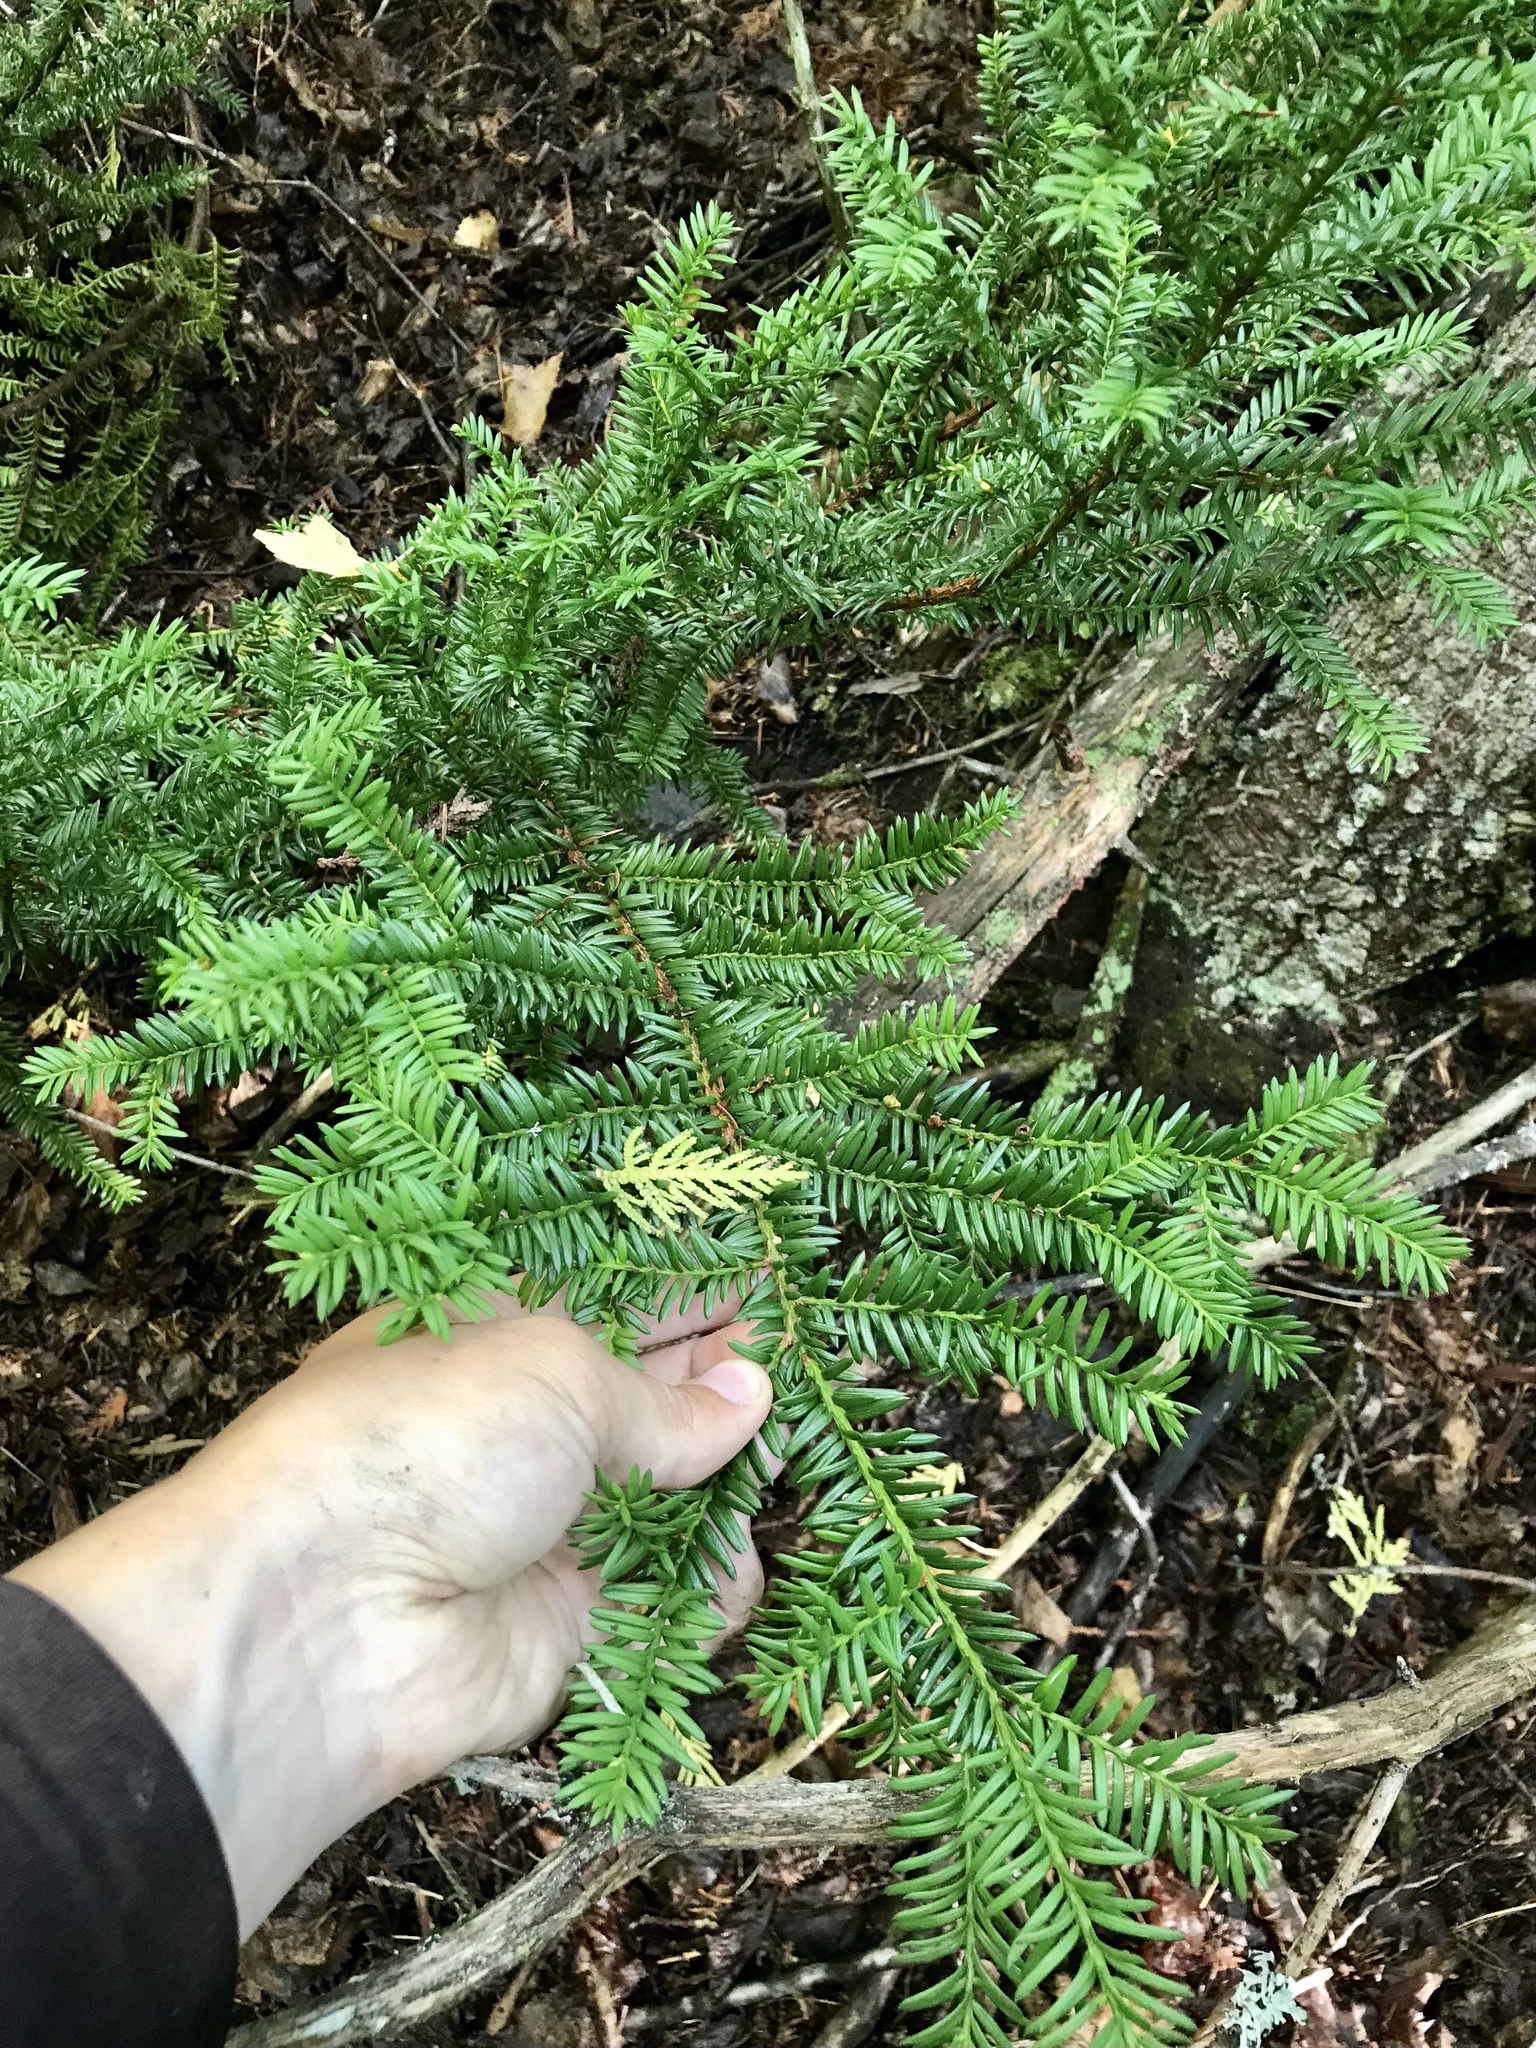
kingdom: Plantae
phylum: Tracheophyta
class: Pinopsida
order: Pinales
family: Taxaceae
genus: Taxus
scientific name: Taxus canadensis
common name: American yew
